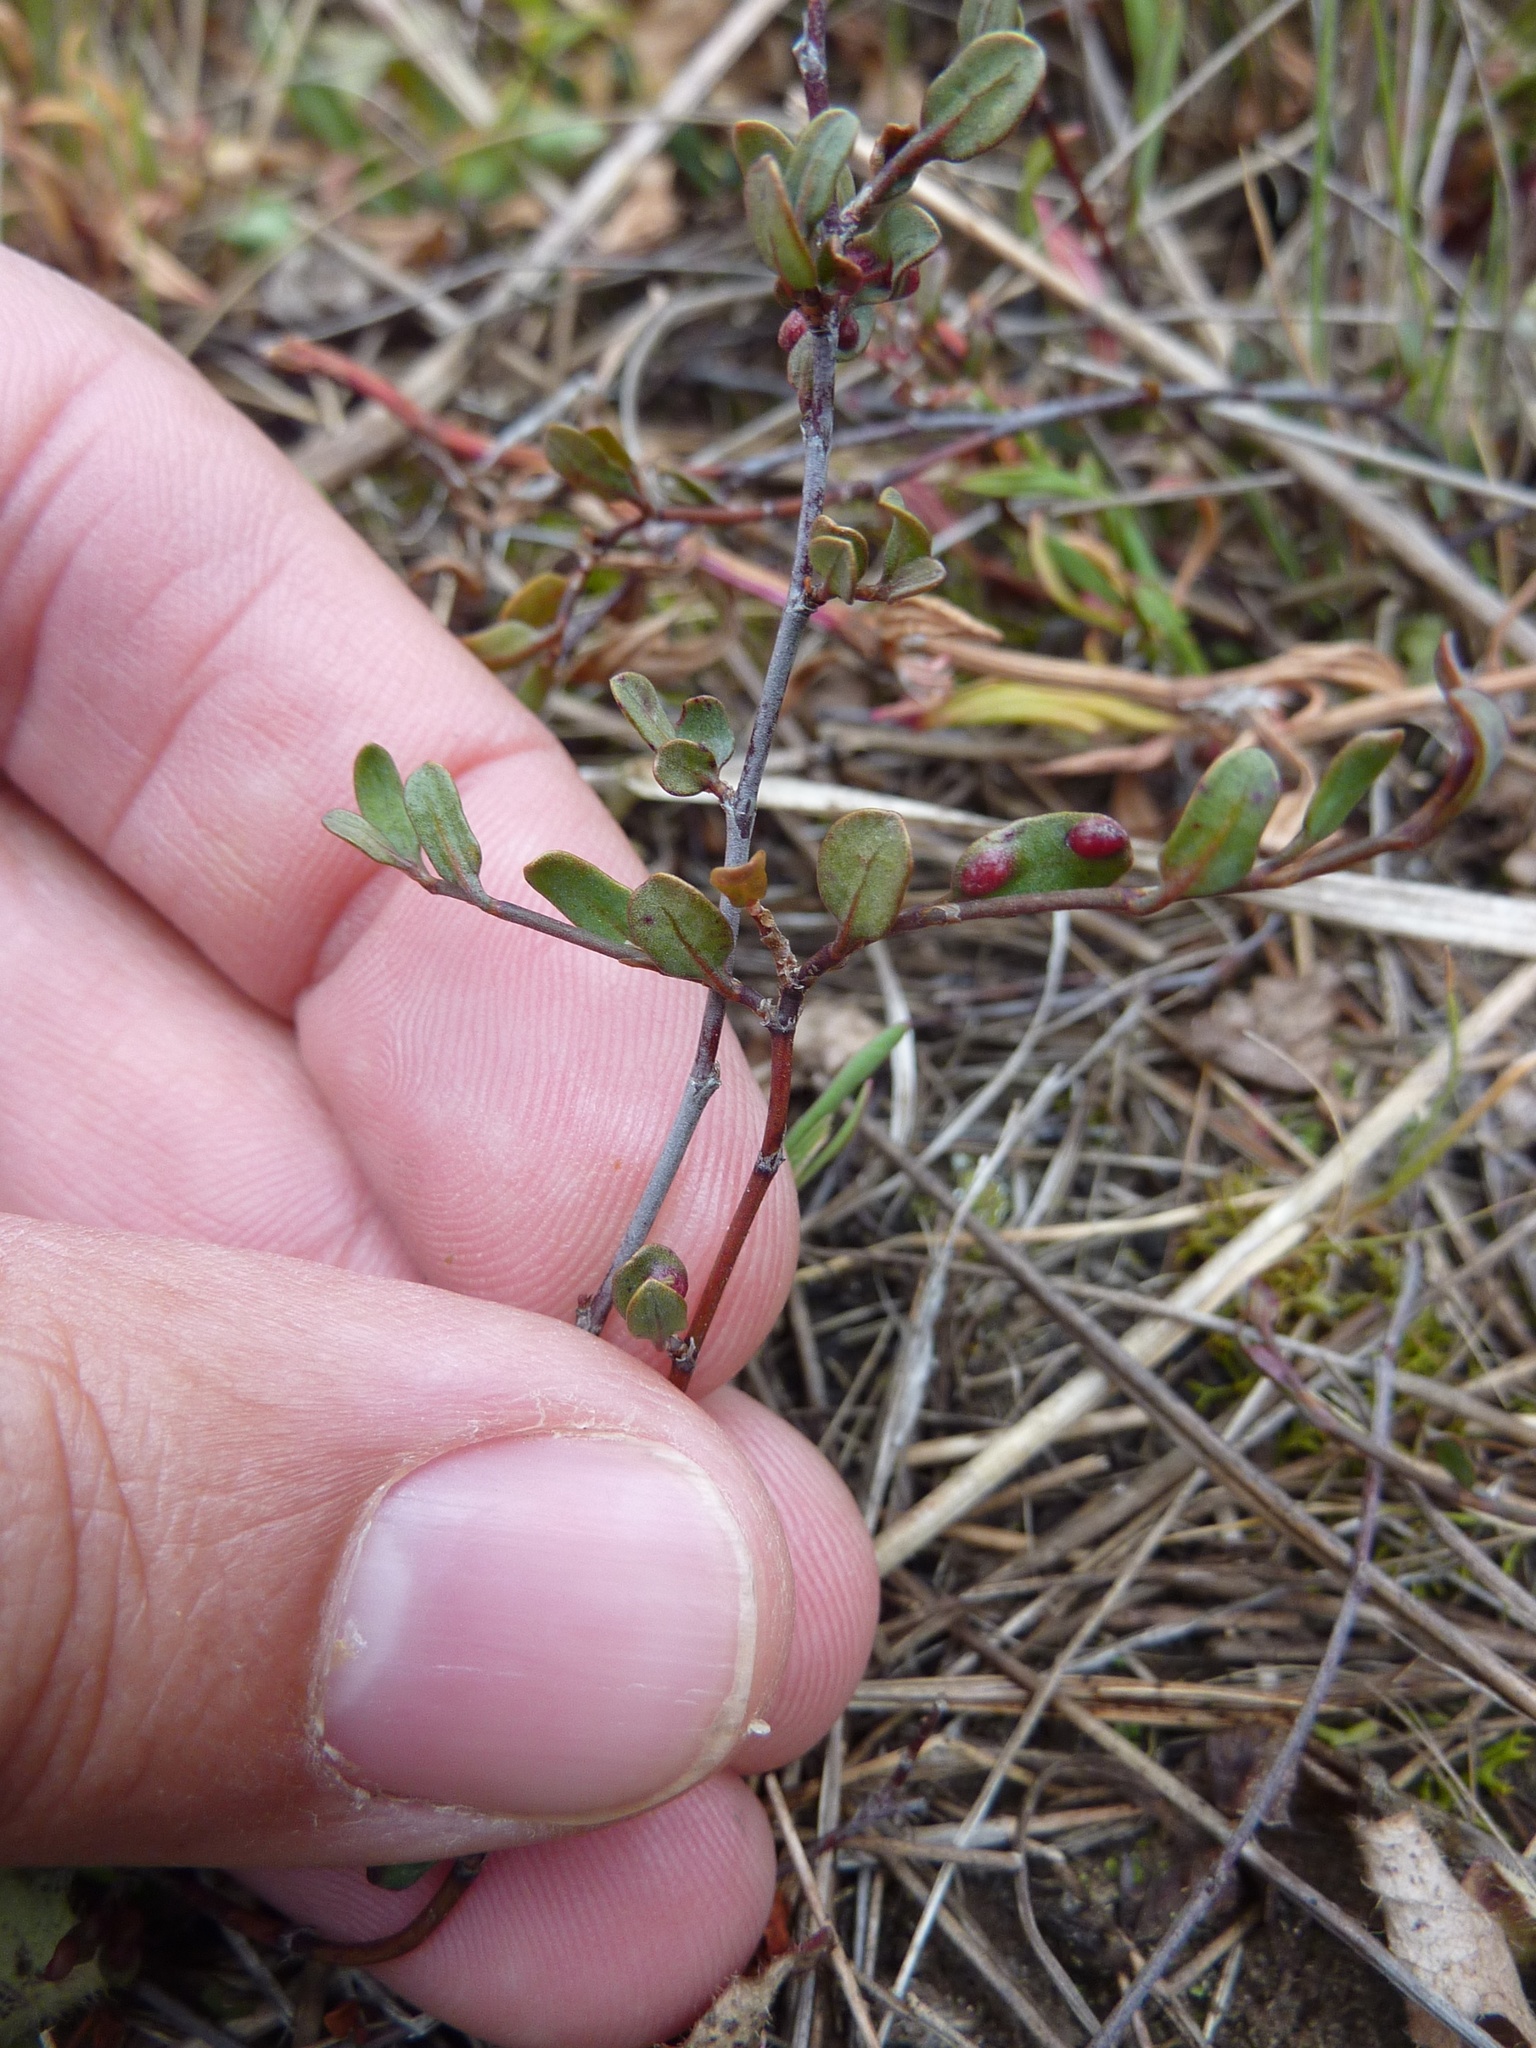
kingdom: Plantae
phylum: Tracheophyta
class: Magnoliopsida
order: Caryophyllales
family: Polygonaceae
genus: Muehlenbeckia
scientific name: Muehlenbeckia ephedroides
